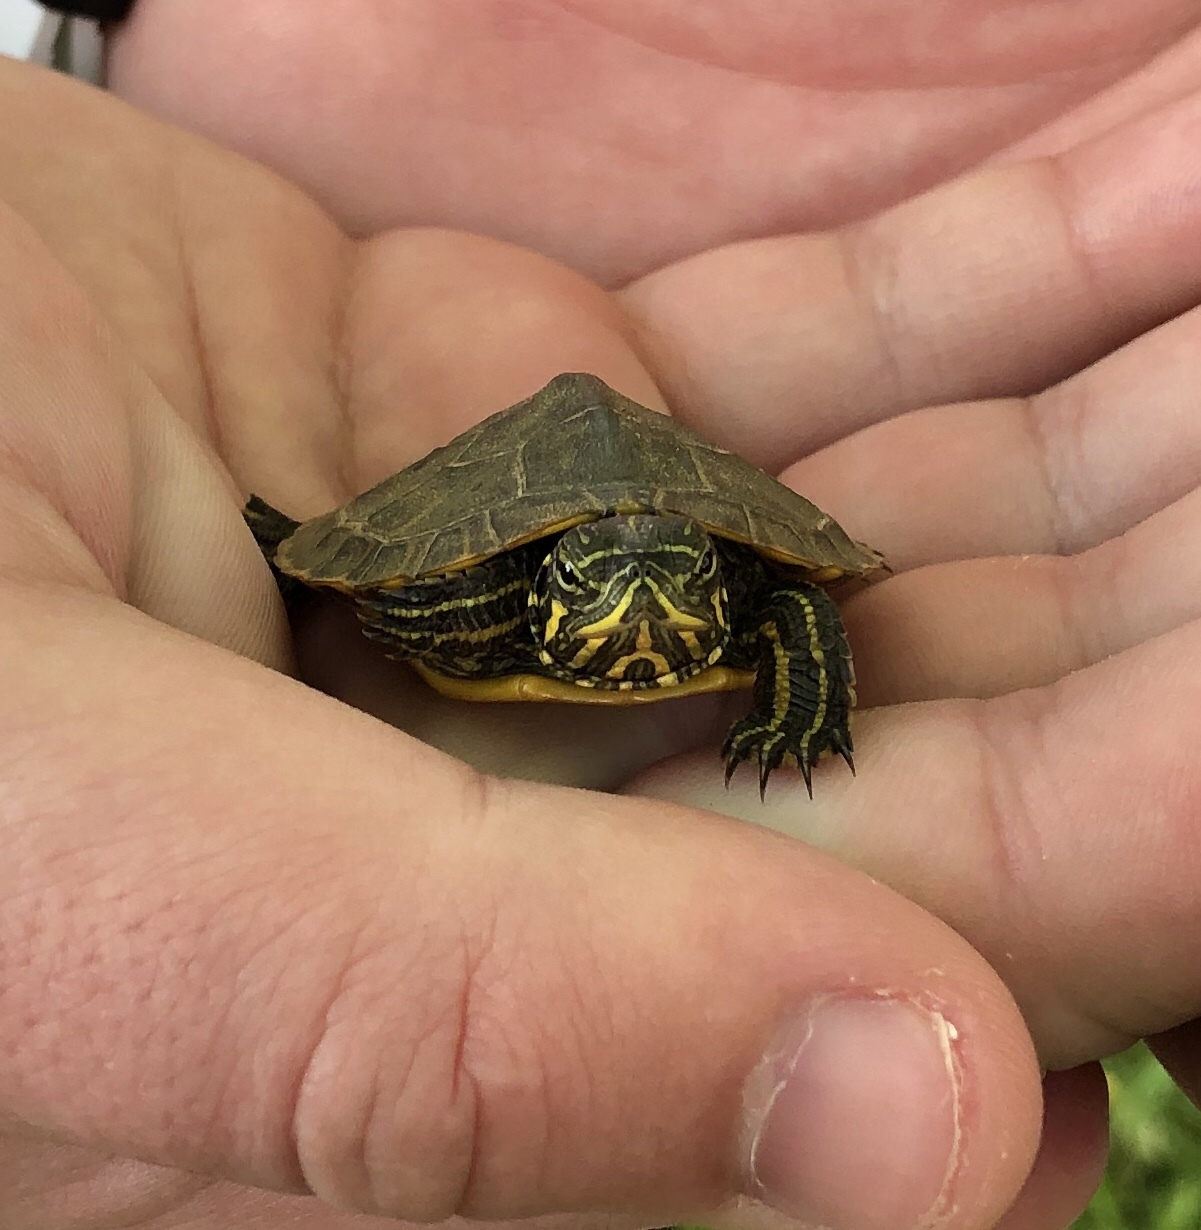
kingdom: Animalia
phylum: Chordata
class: Testudines
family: Emydidae
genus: Trachemys
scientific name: Trachemys scripta
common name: Slider
